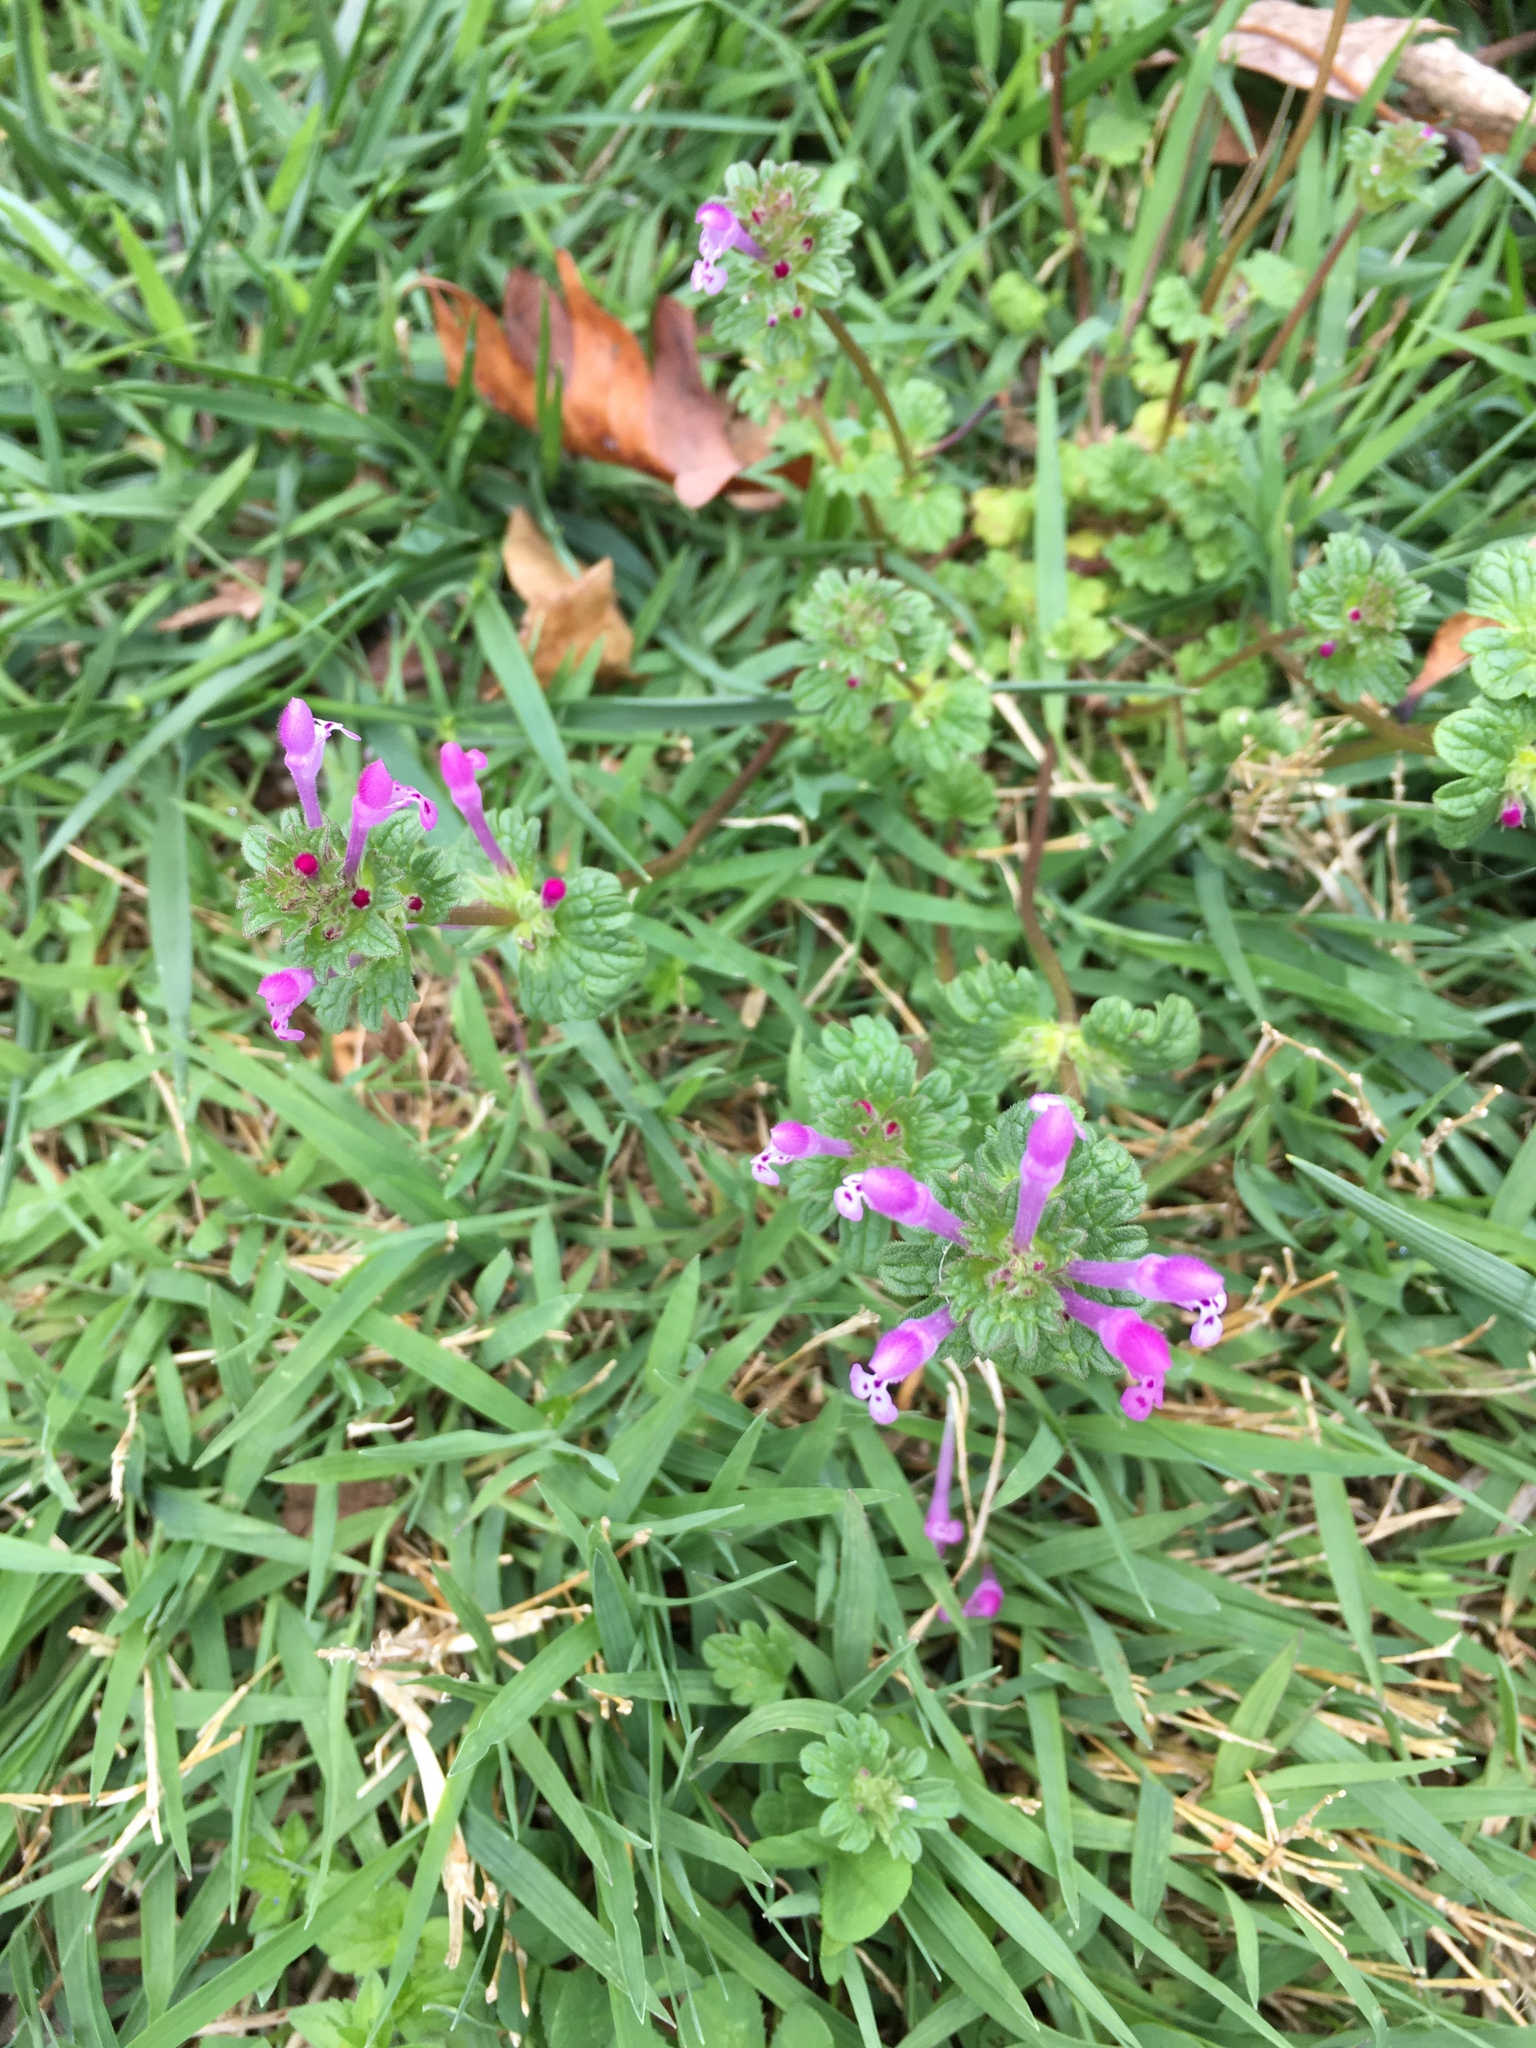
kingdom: Plantae
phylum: Tracheophyta
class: Magnoliopsida
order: Lamiales
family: Lamiaceae
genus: Lamium
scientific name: Lamium amplexicaule
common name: Henbit dead-nettle
